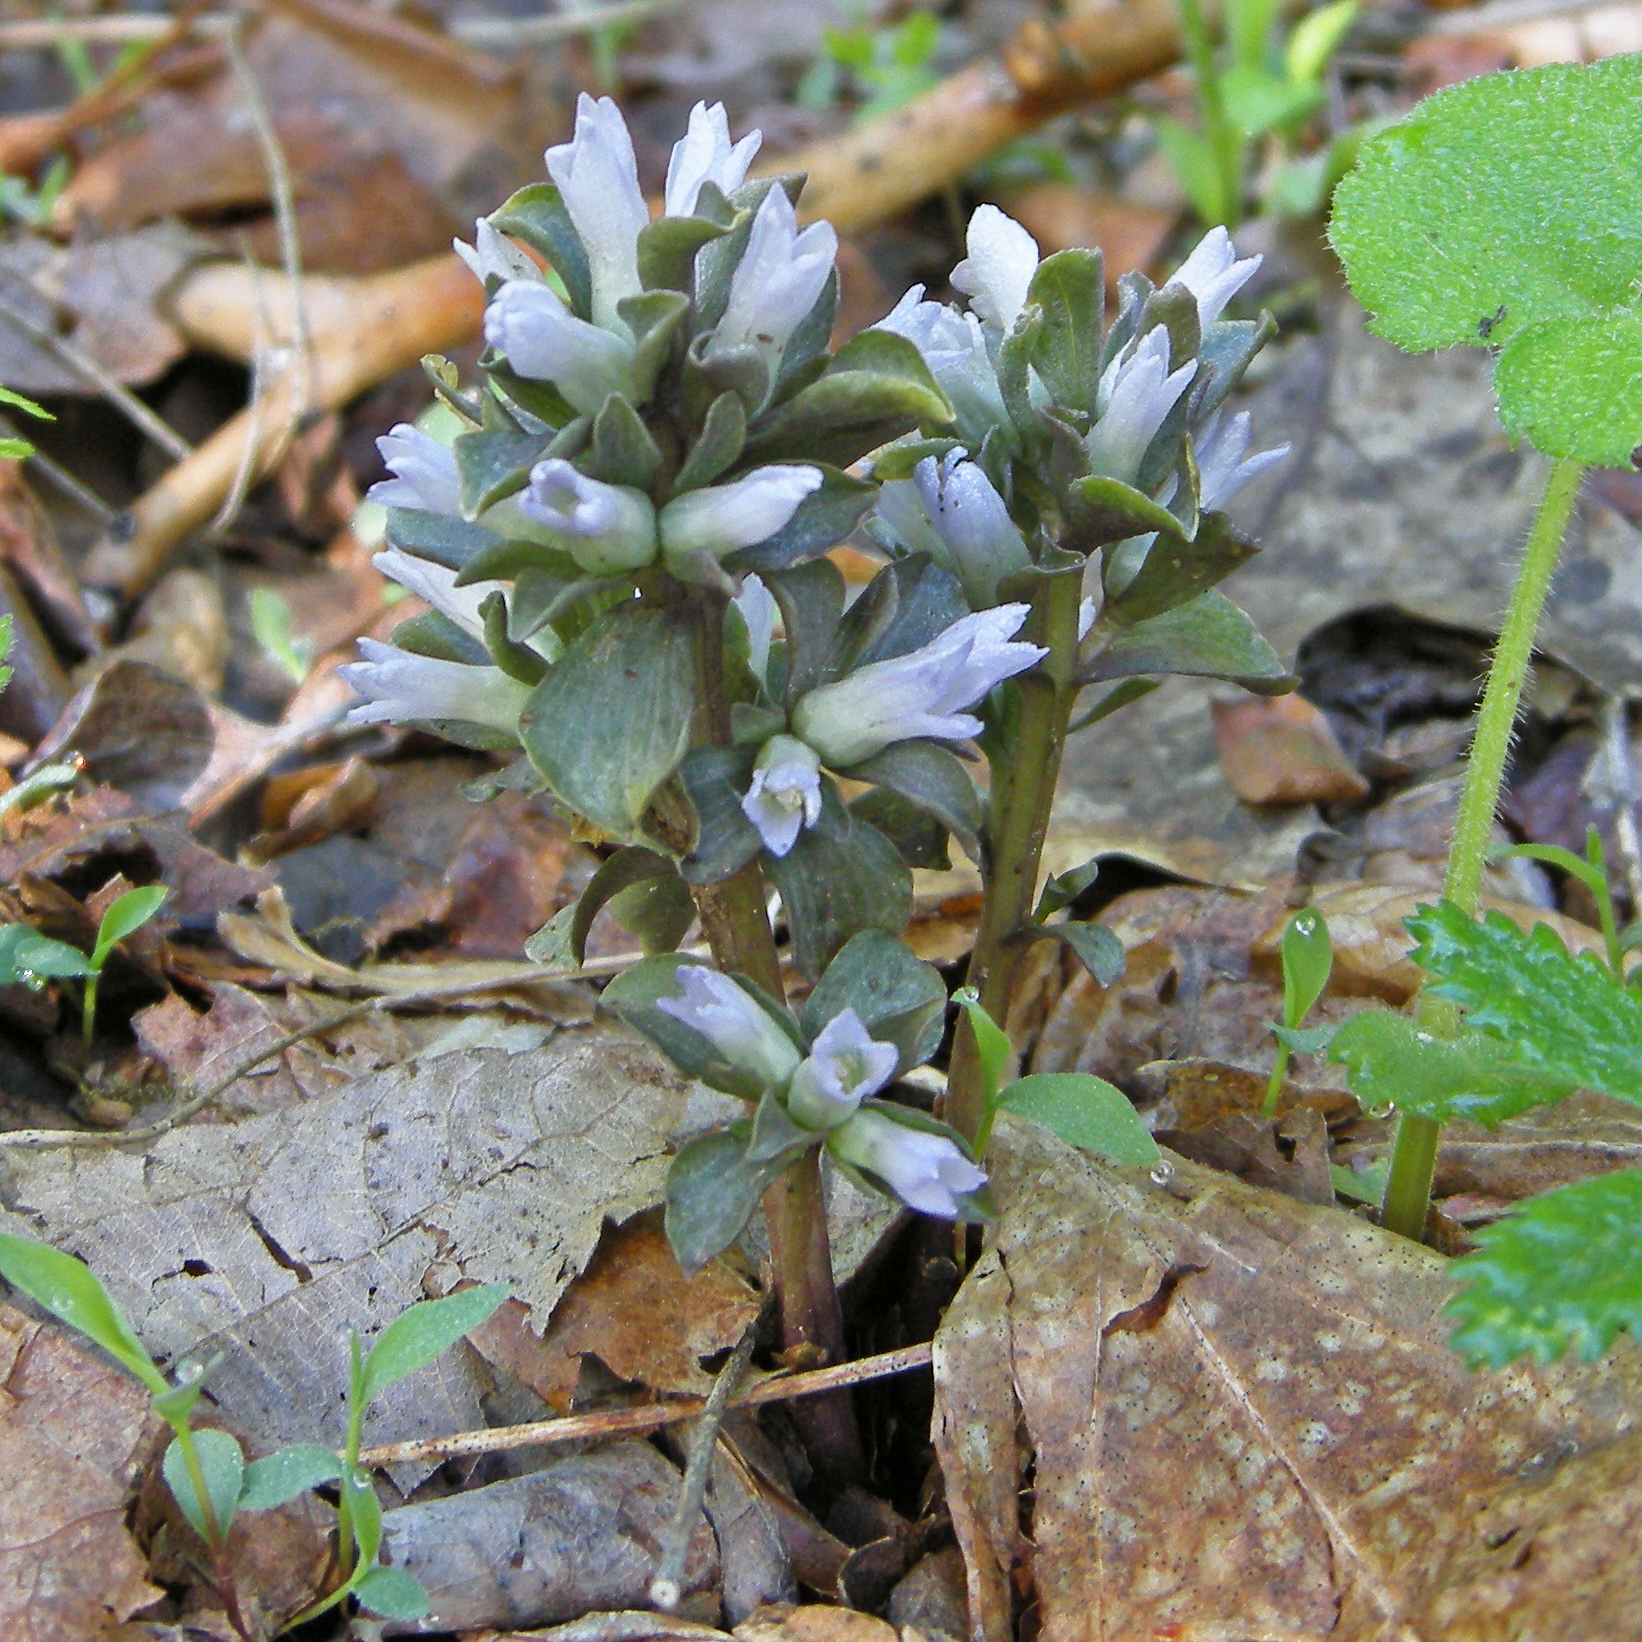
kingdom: Plantae
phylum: Tracheophyta
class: Magnoliopsida
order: Gentianales
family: Gentianaceae
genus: Obolaria
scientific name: Obolaria virginica
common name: Pennywort
